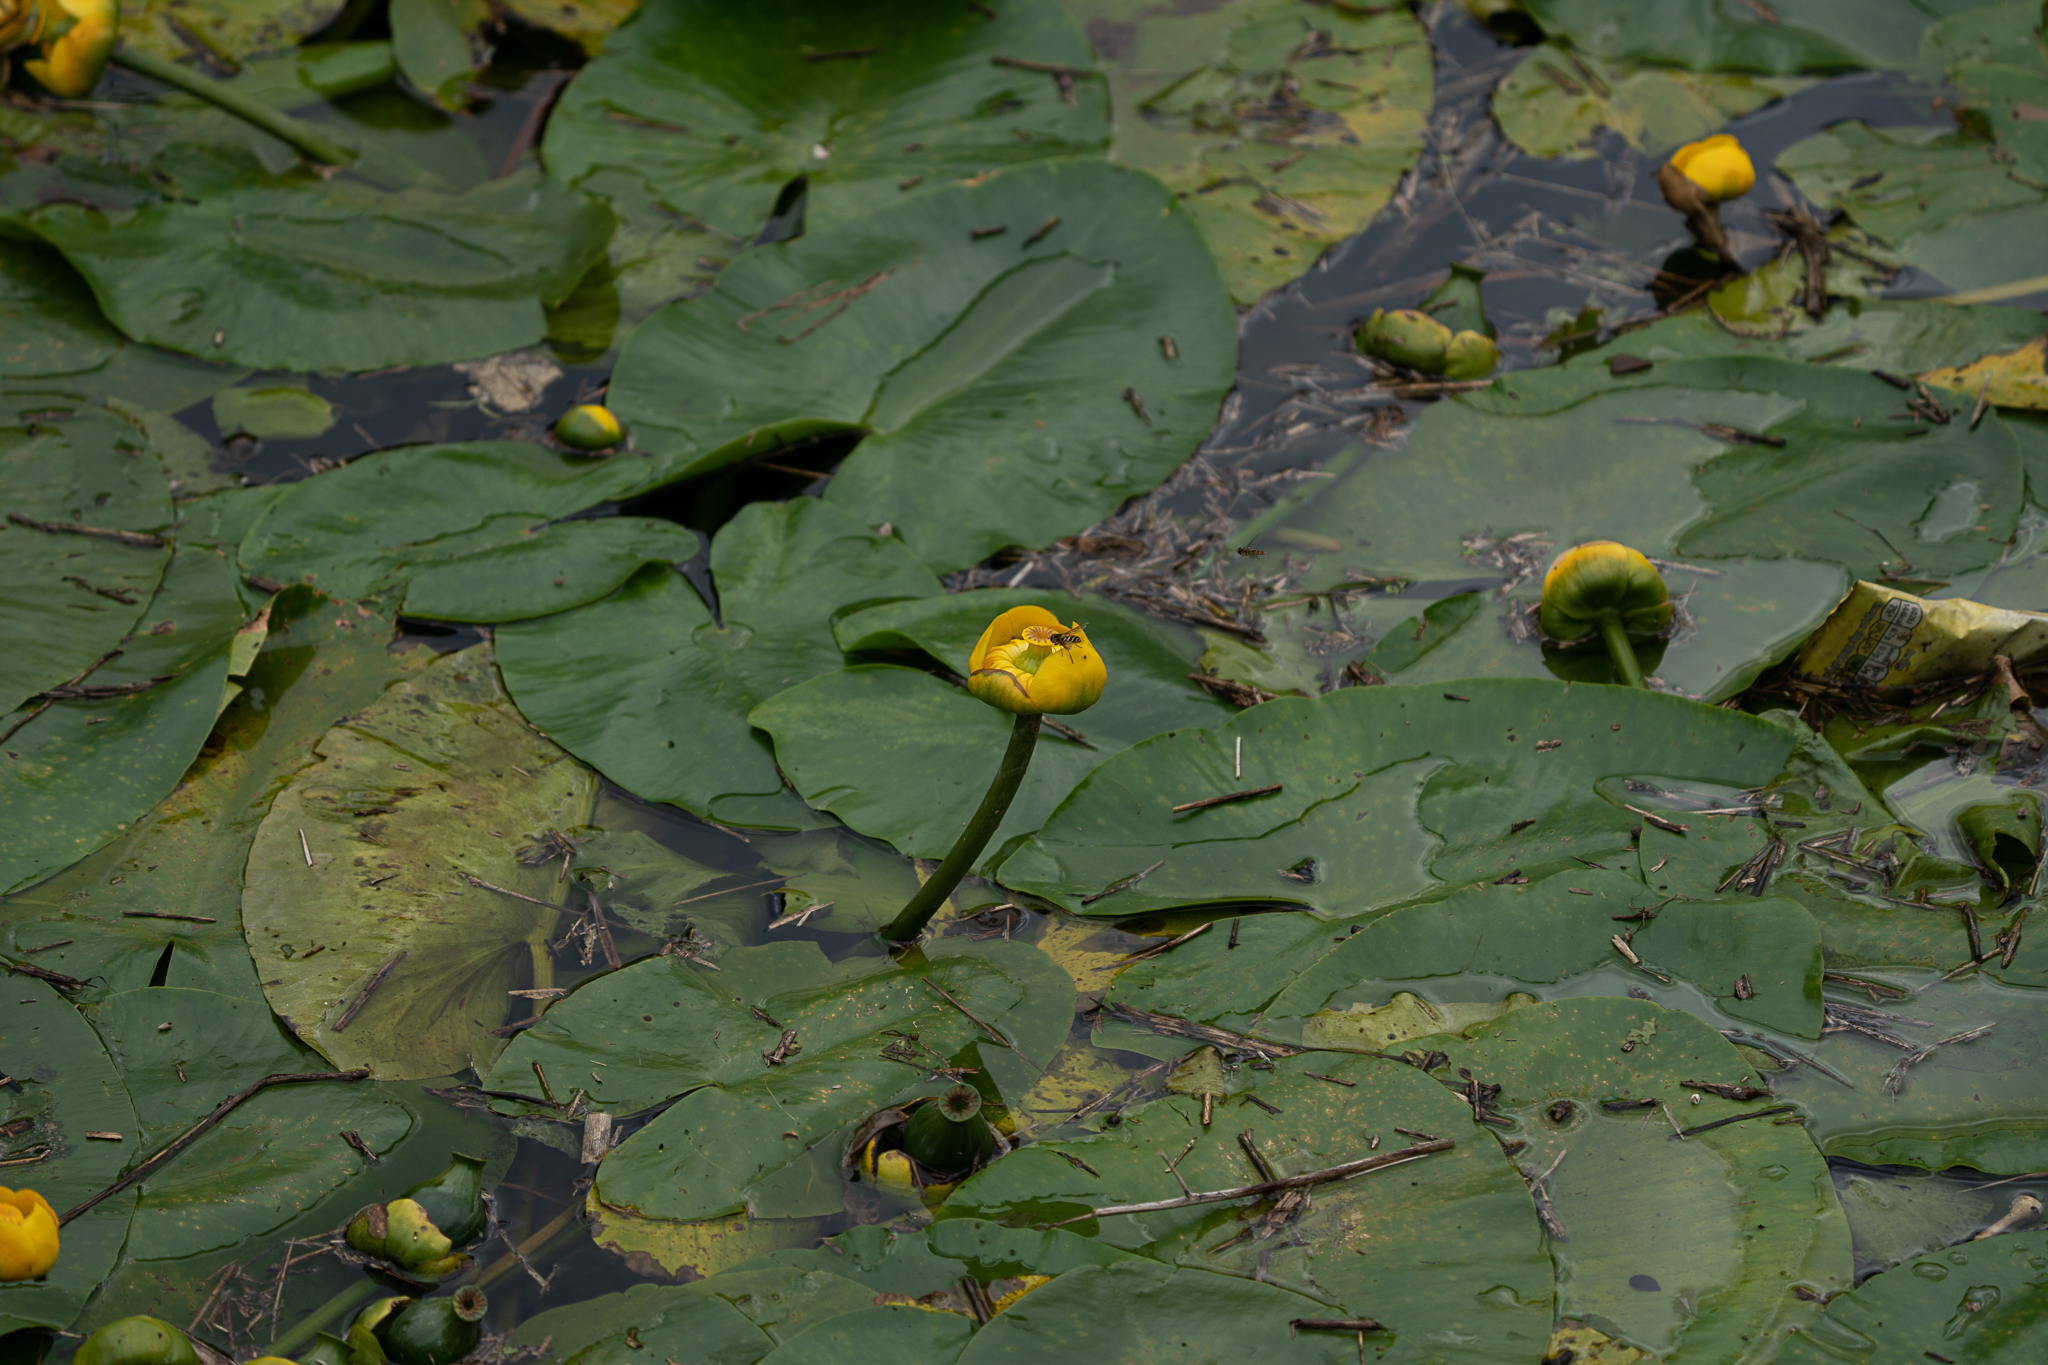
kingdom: Plantae
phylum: Tracheophyta
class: Magnoliopsida
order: Nymphaeales
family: Nymphaeaceae
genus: Nuphar
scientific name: Nuphar lutea
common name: Yellow water-lily
